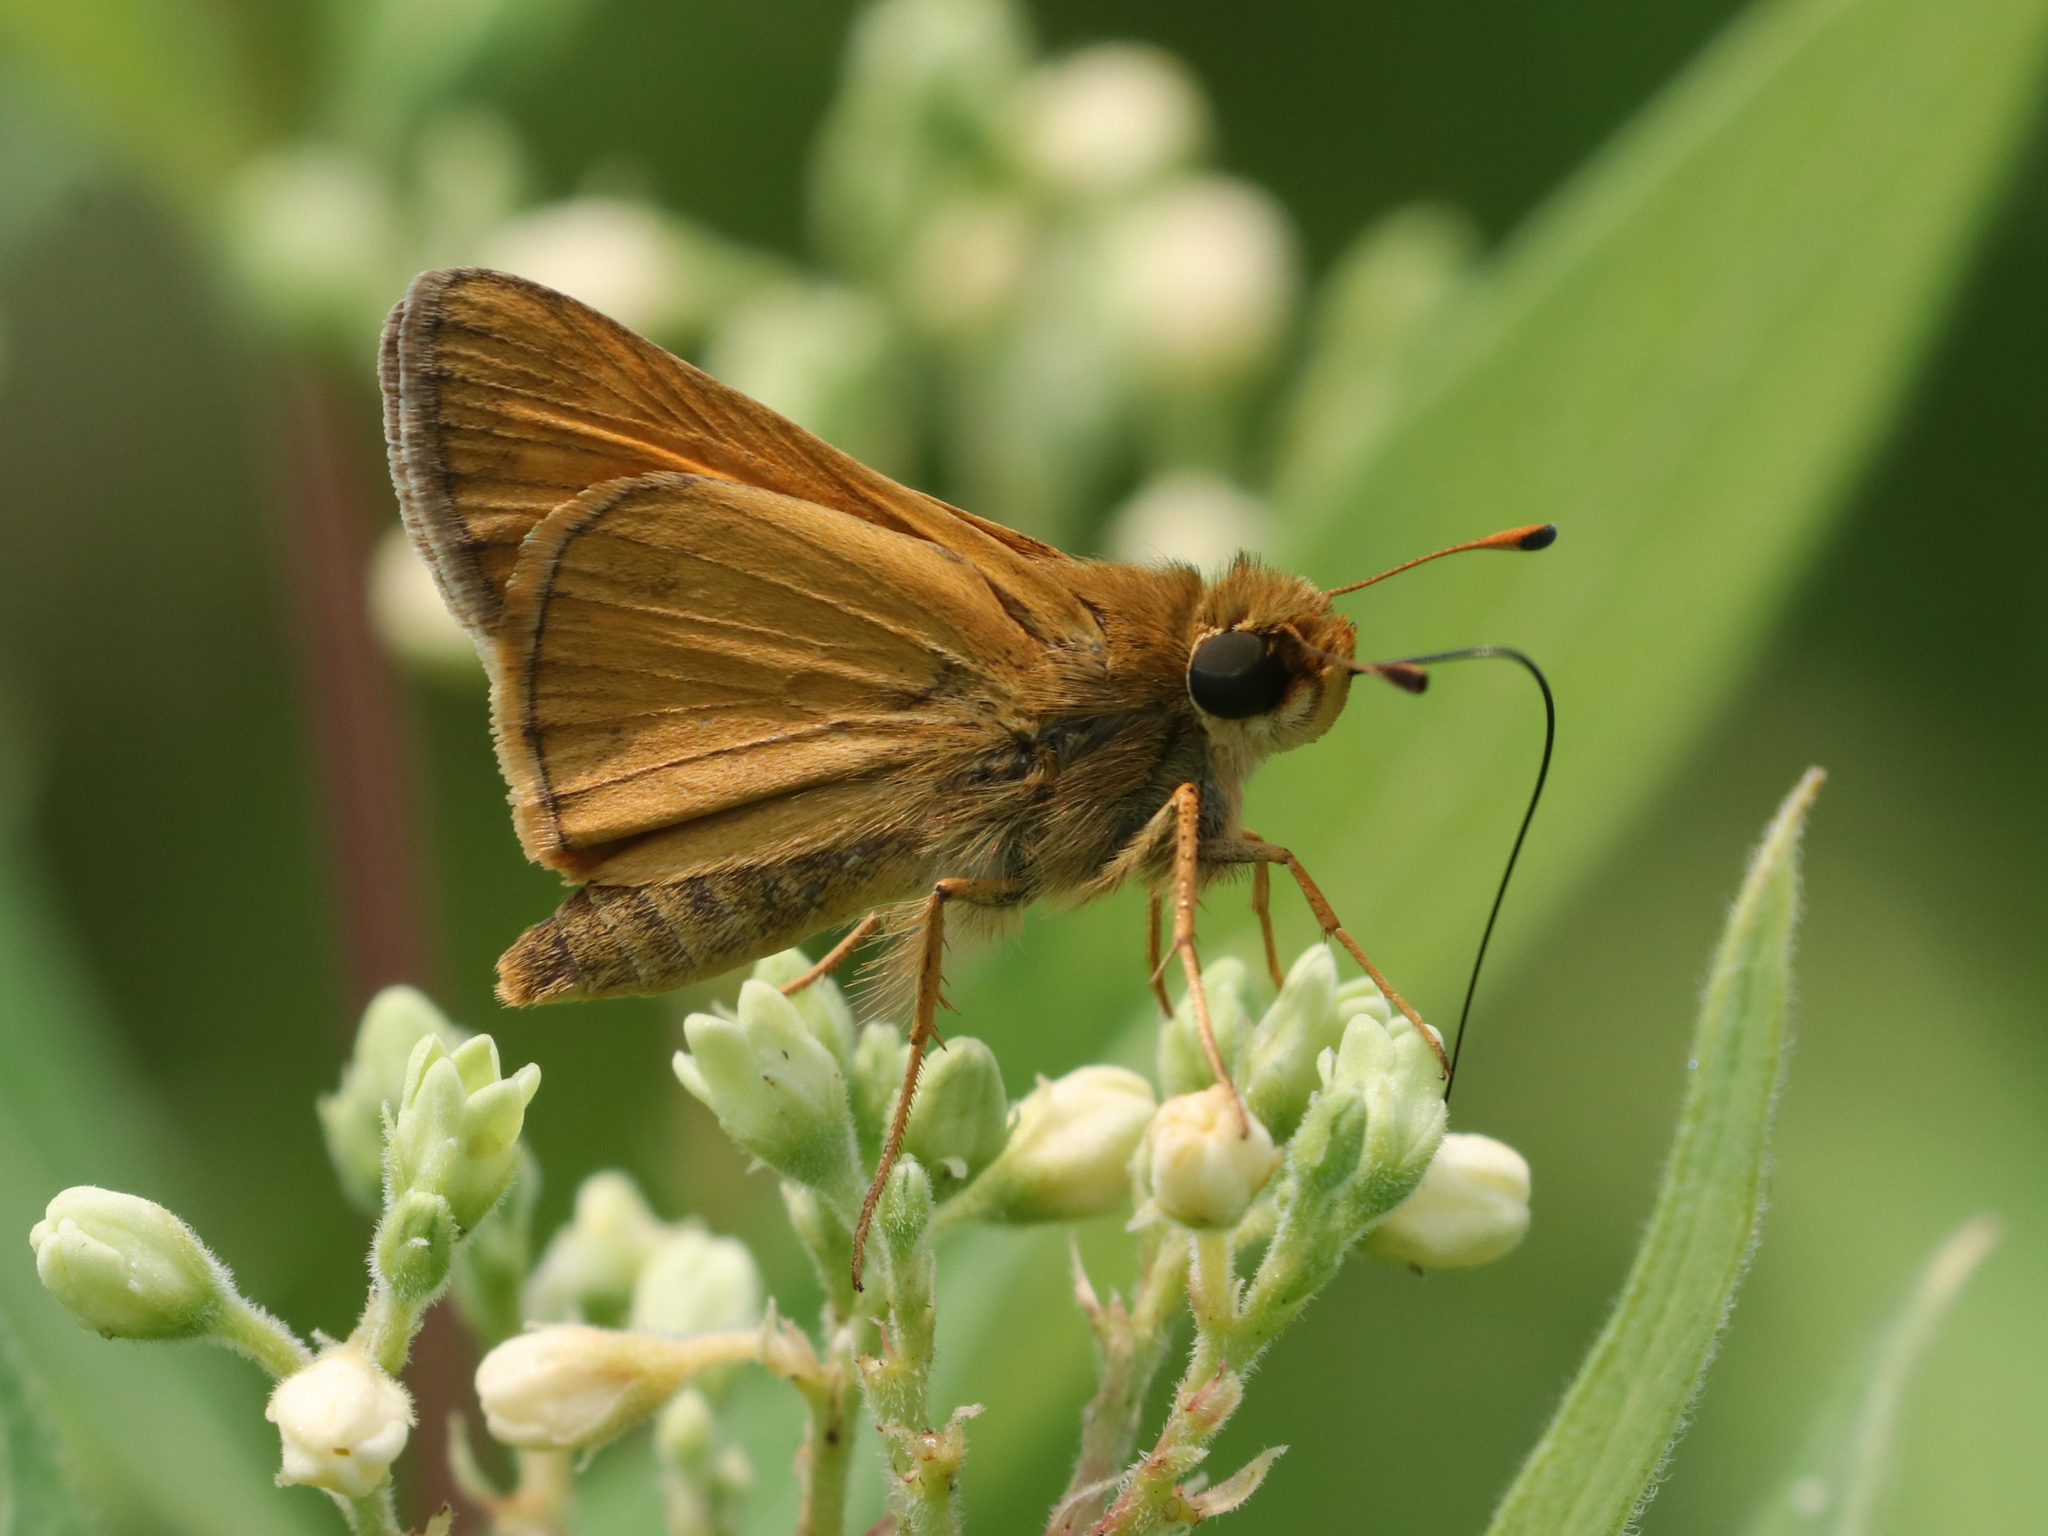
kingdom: Animalia
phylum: Arthropoda
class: Insecta
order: Lepidoptera
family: Hesperiidae
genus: Atalopedes
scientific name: Atalopedes
